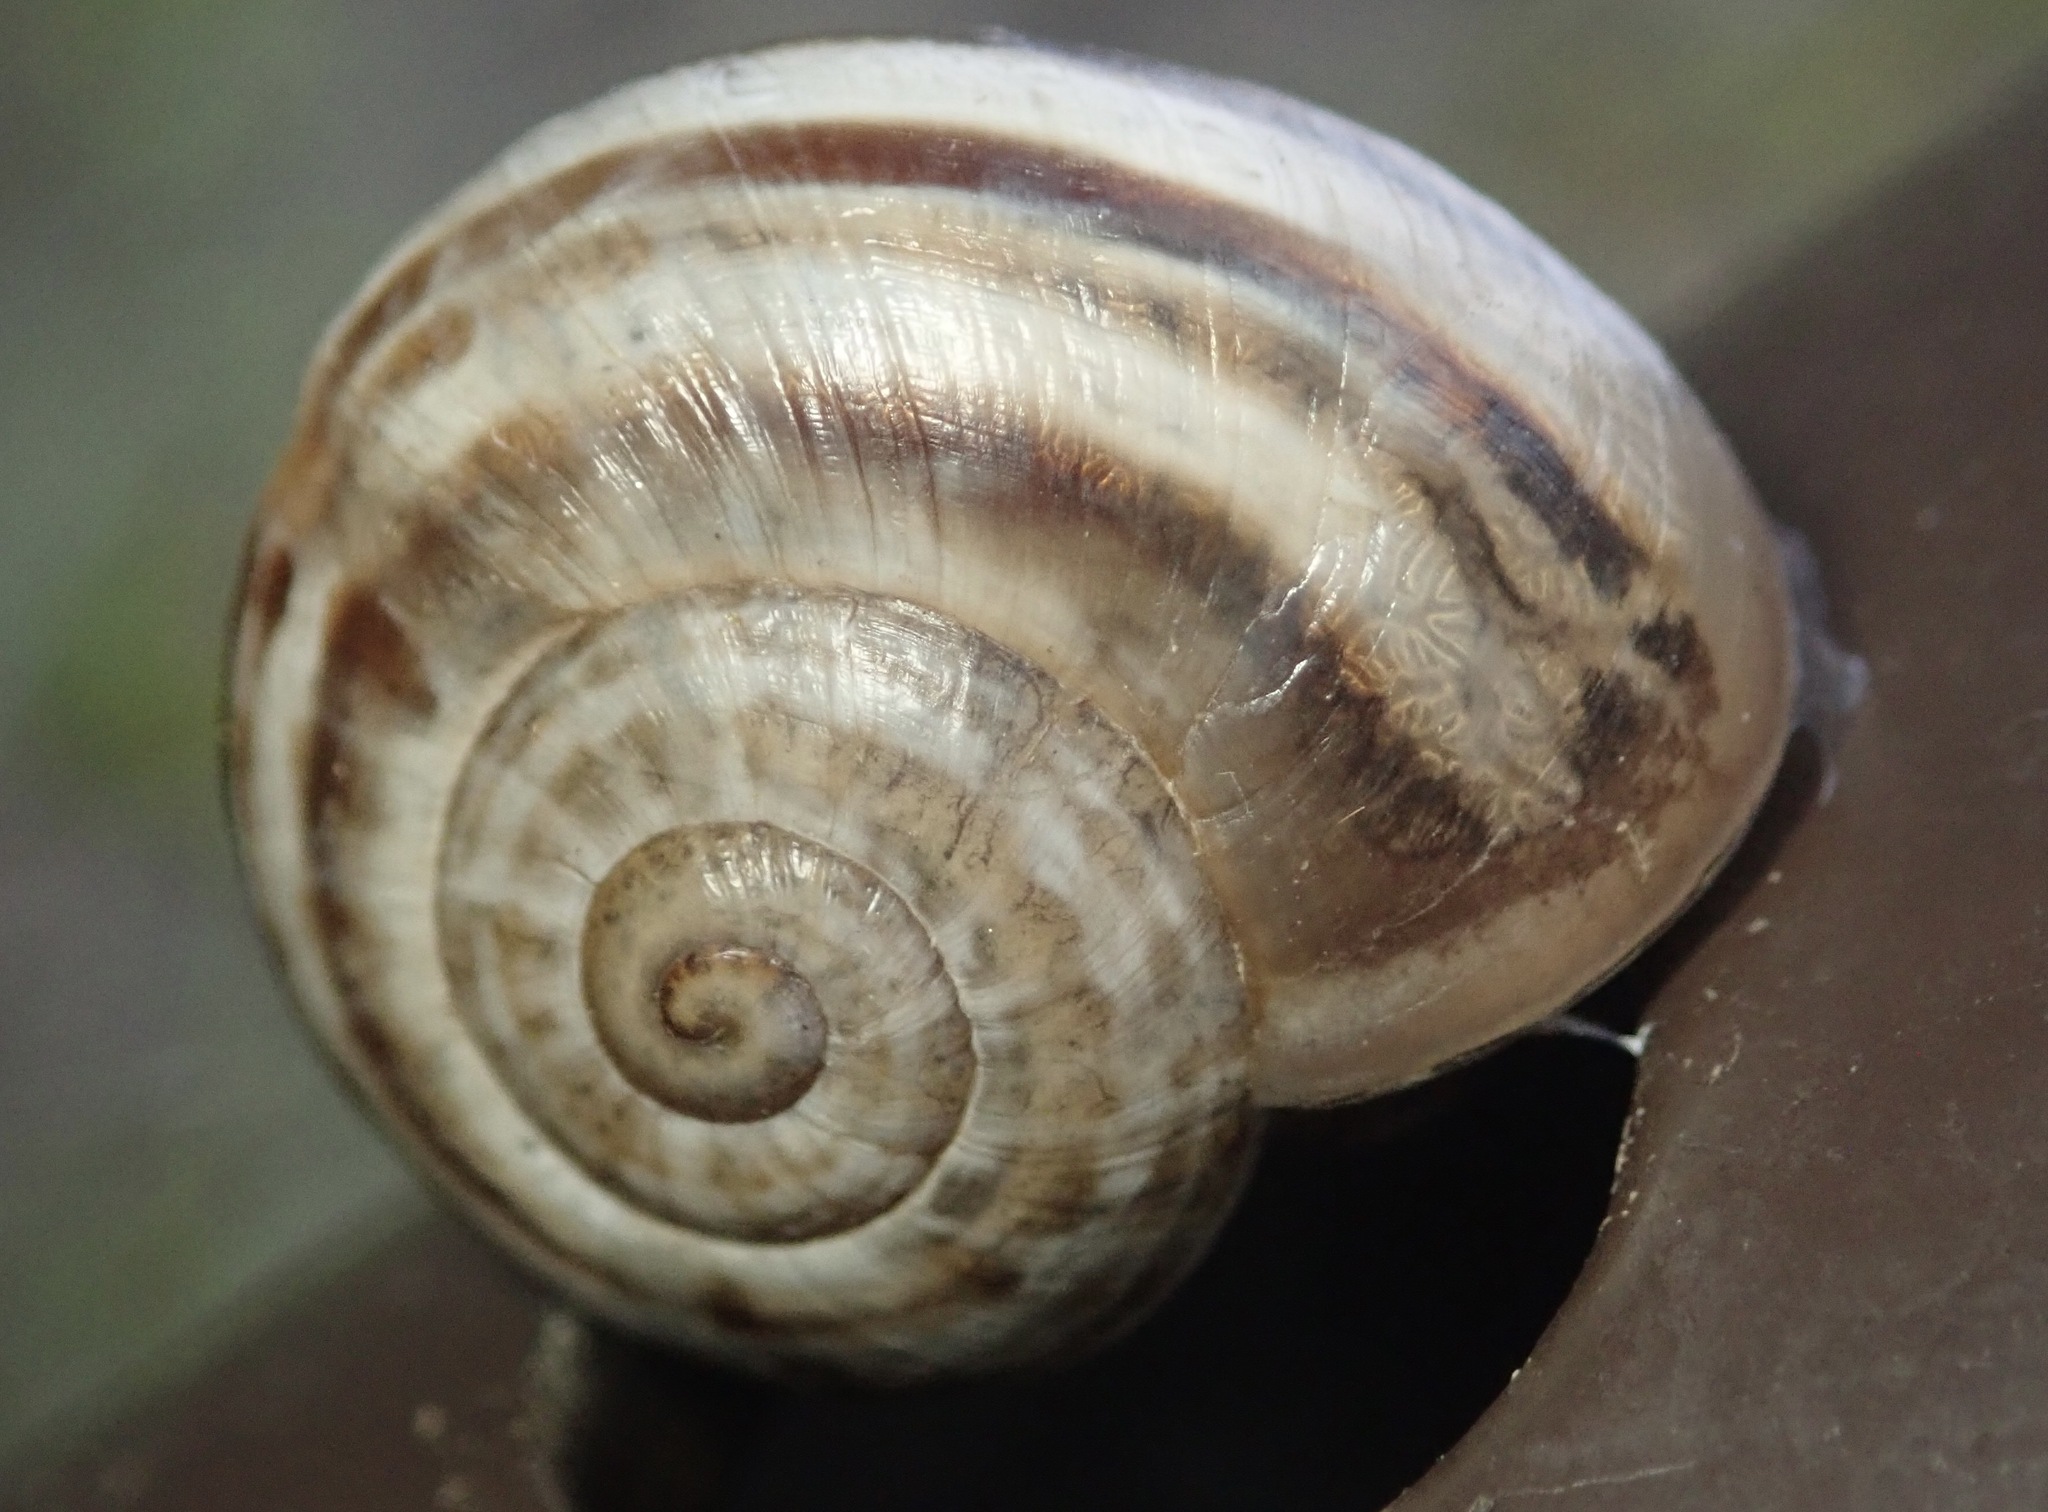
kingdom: Animalia
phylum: Mollusca
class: Gastropoda
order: Stylommatophora
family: Helicidae
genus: Otala
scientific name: Otala lactea
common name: Milk snail
